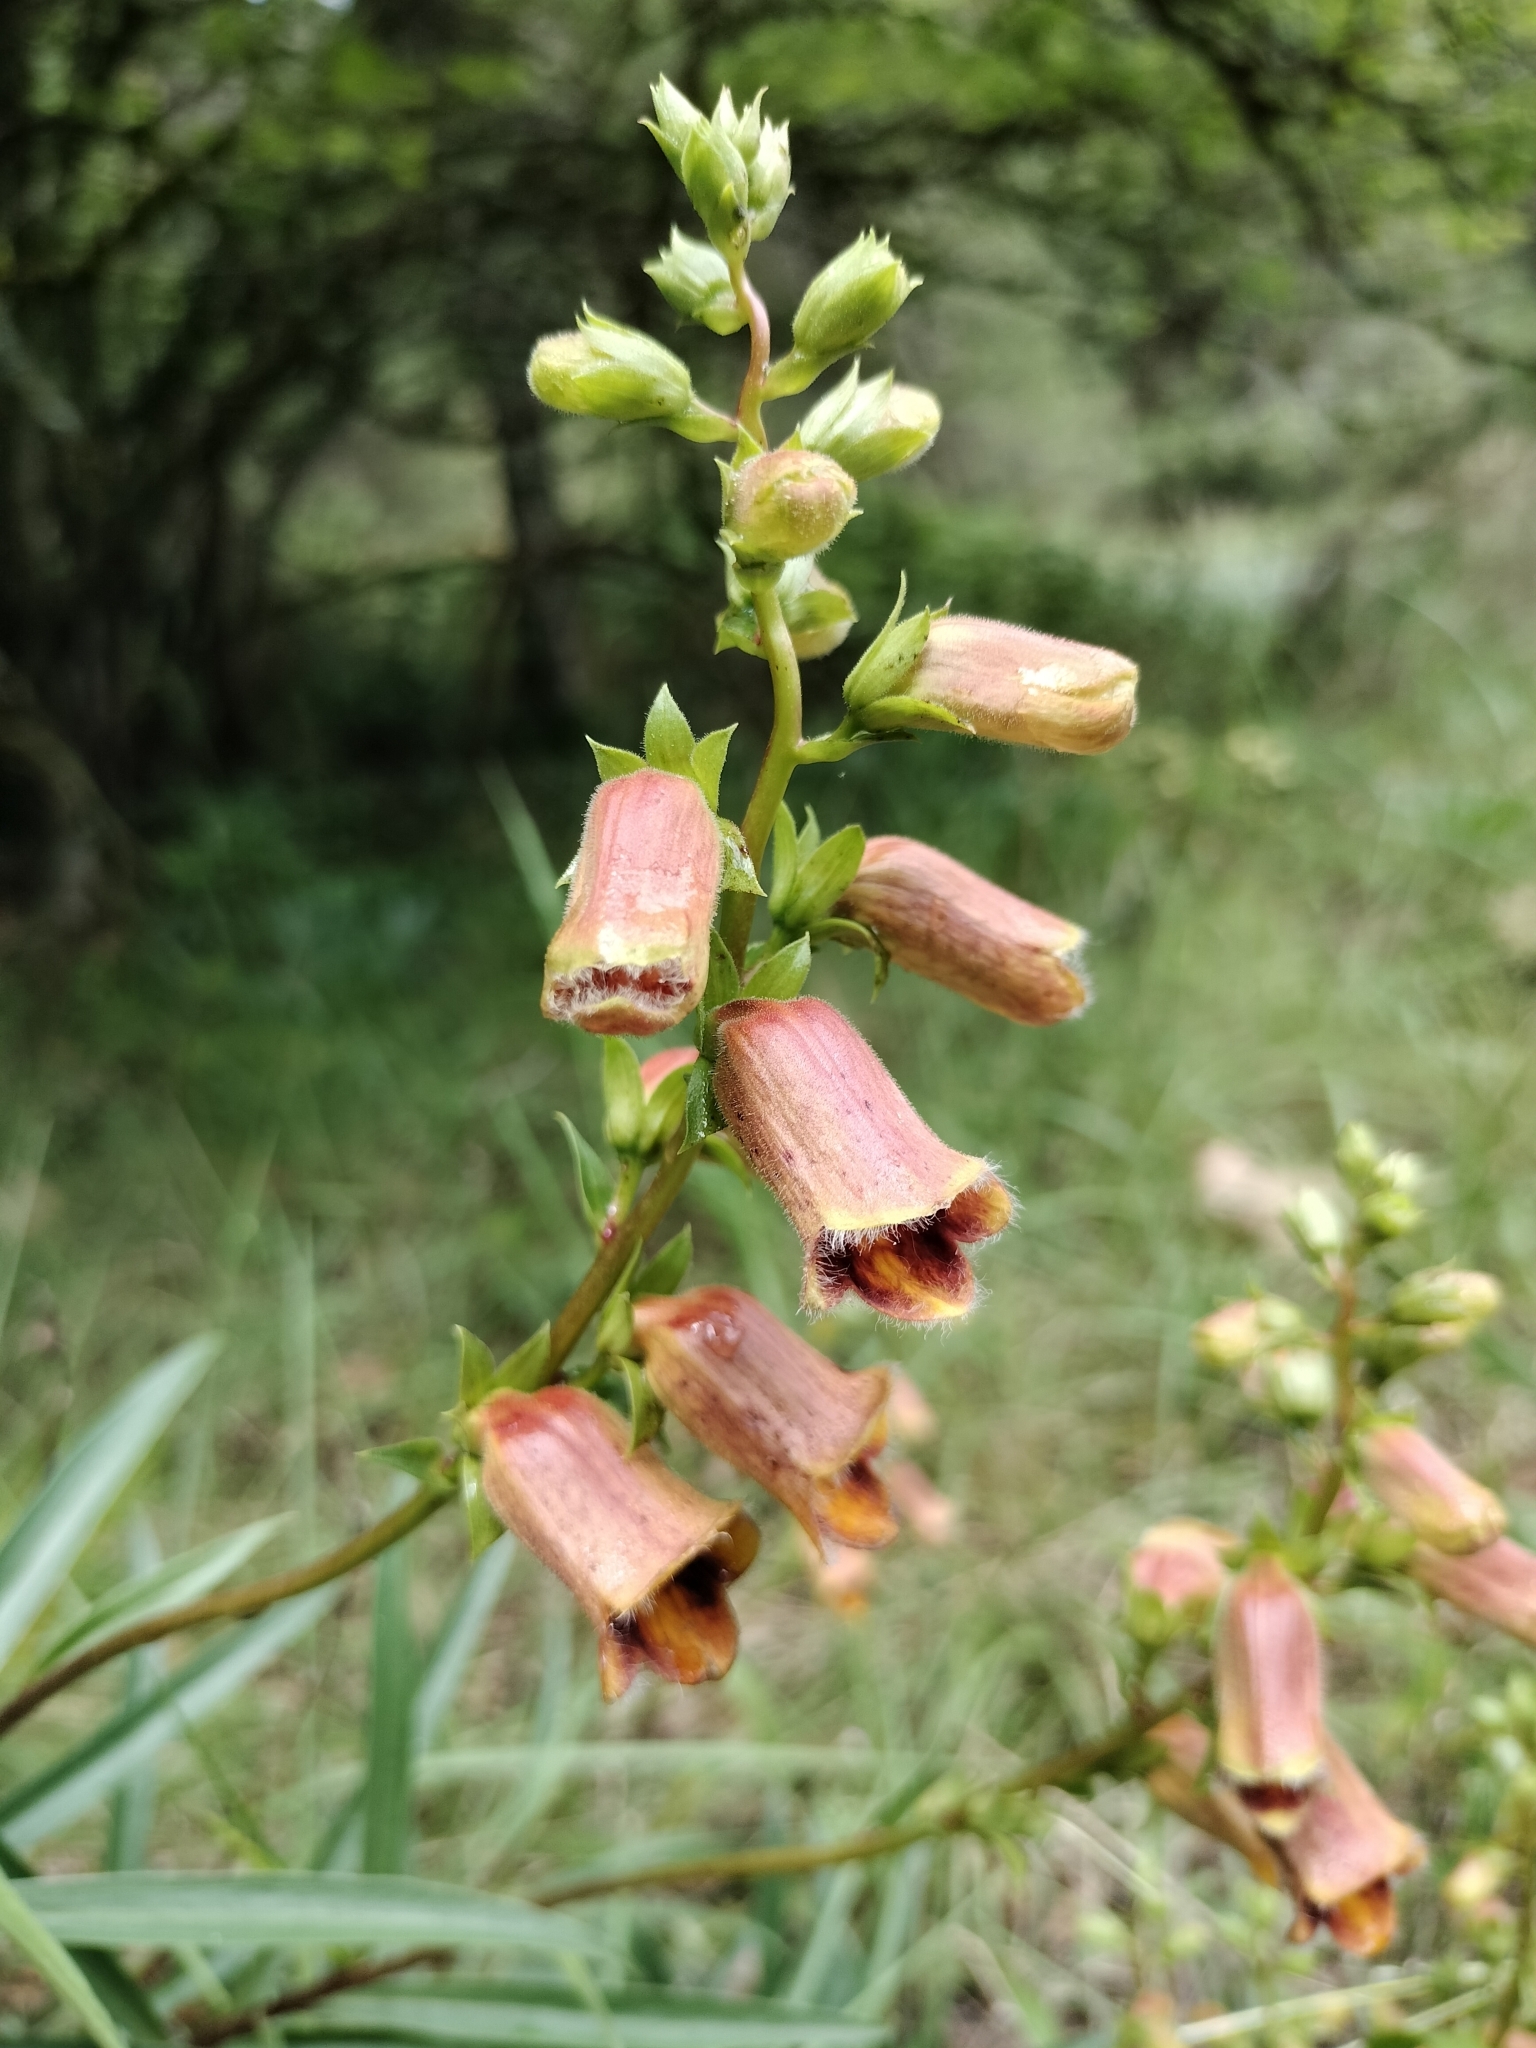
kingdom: Plantae
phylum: Tracheophyta
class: Magnoliopsida
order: Lamiales
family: Plantaginaceae
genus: Digitalis
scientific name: Digitalis obscura
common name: Willow-leaf foxglove
